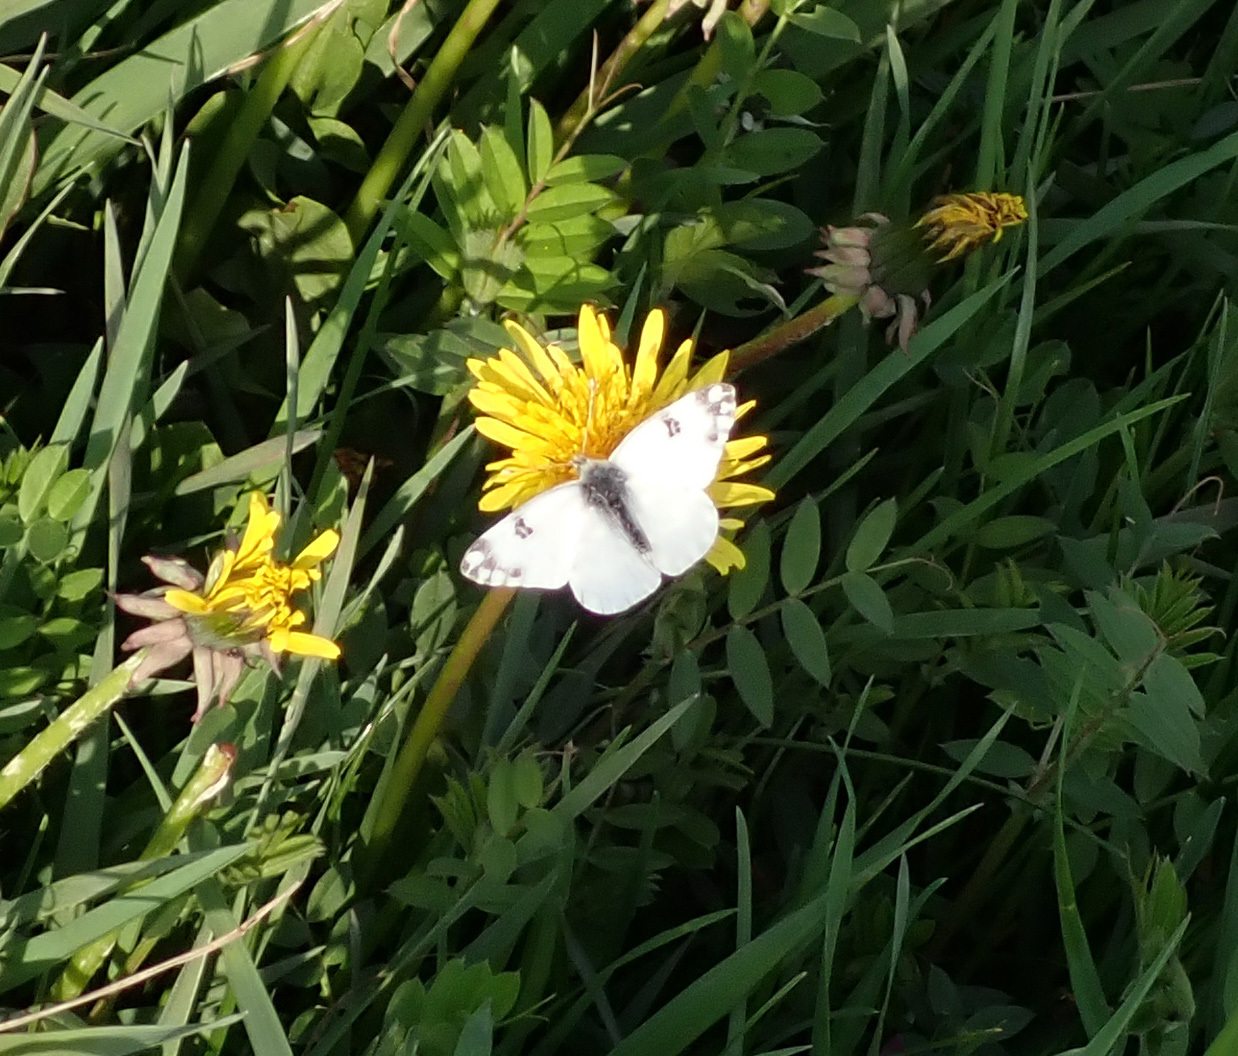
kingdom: Animalia
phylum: Arthropoda
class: Insecta
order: Lepidoptera
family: Pieridae
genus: Pontia
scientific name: Pontia edusa
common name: Eastern bath white
